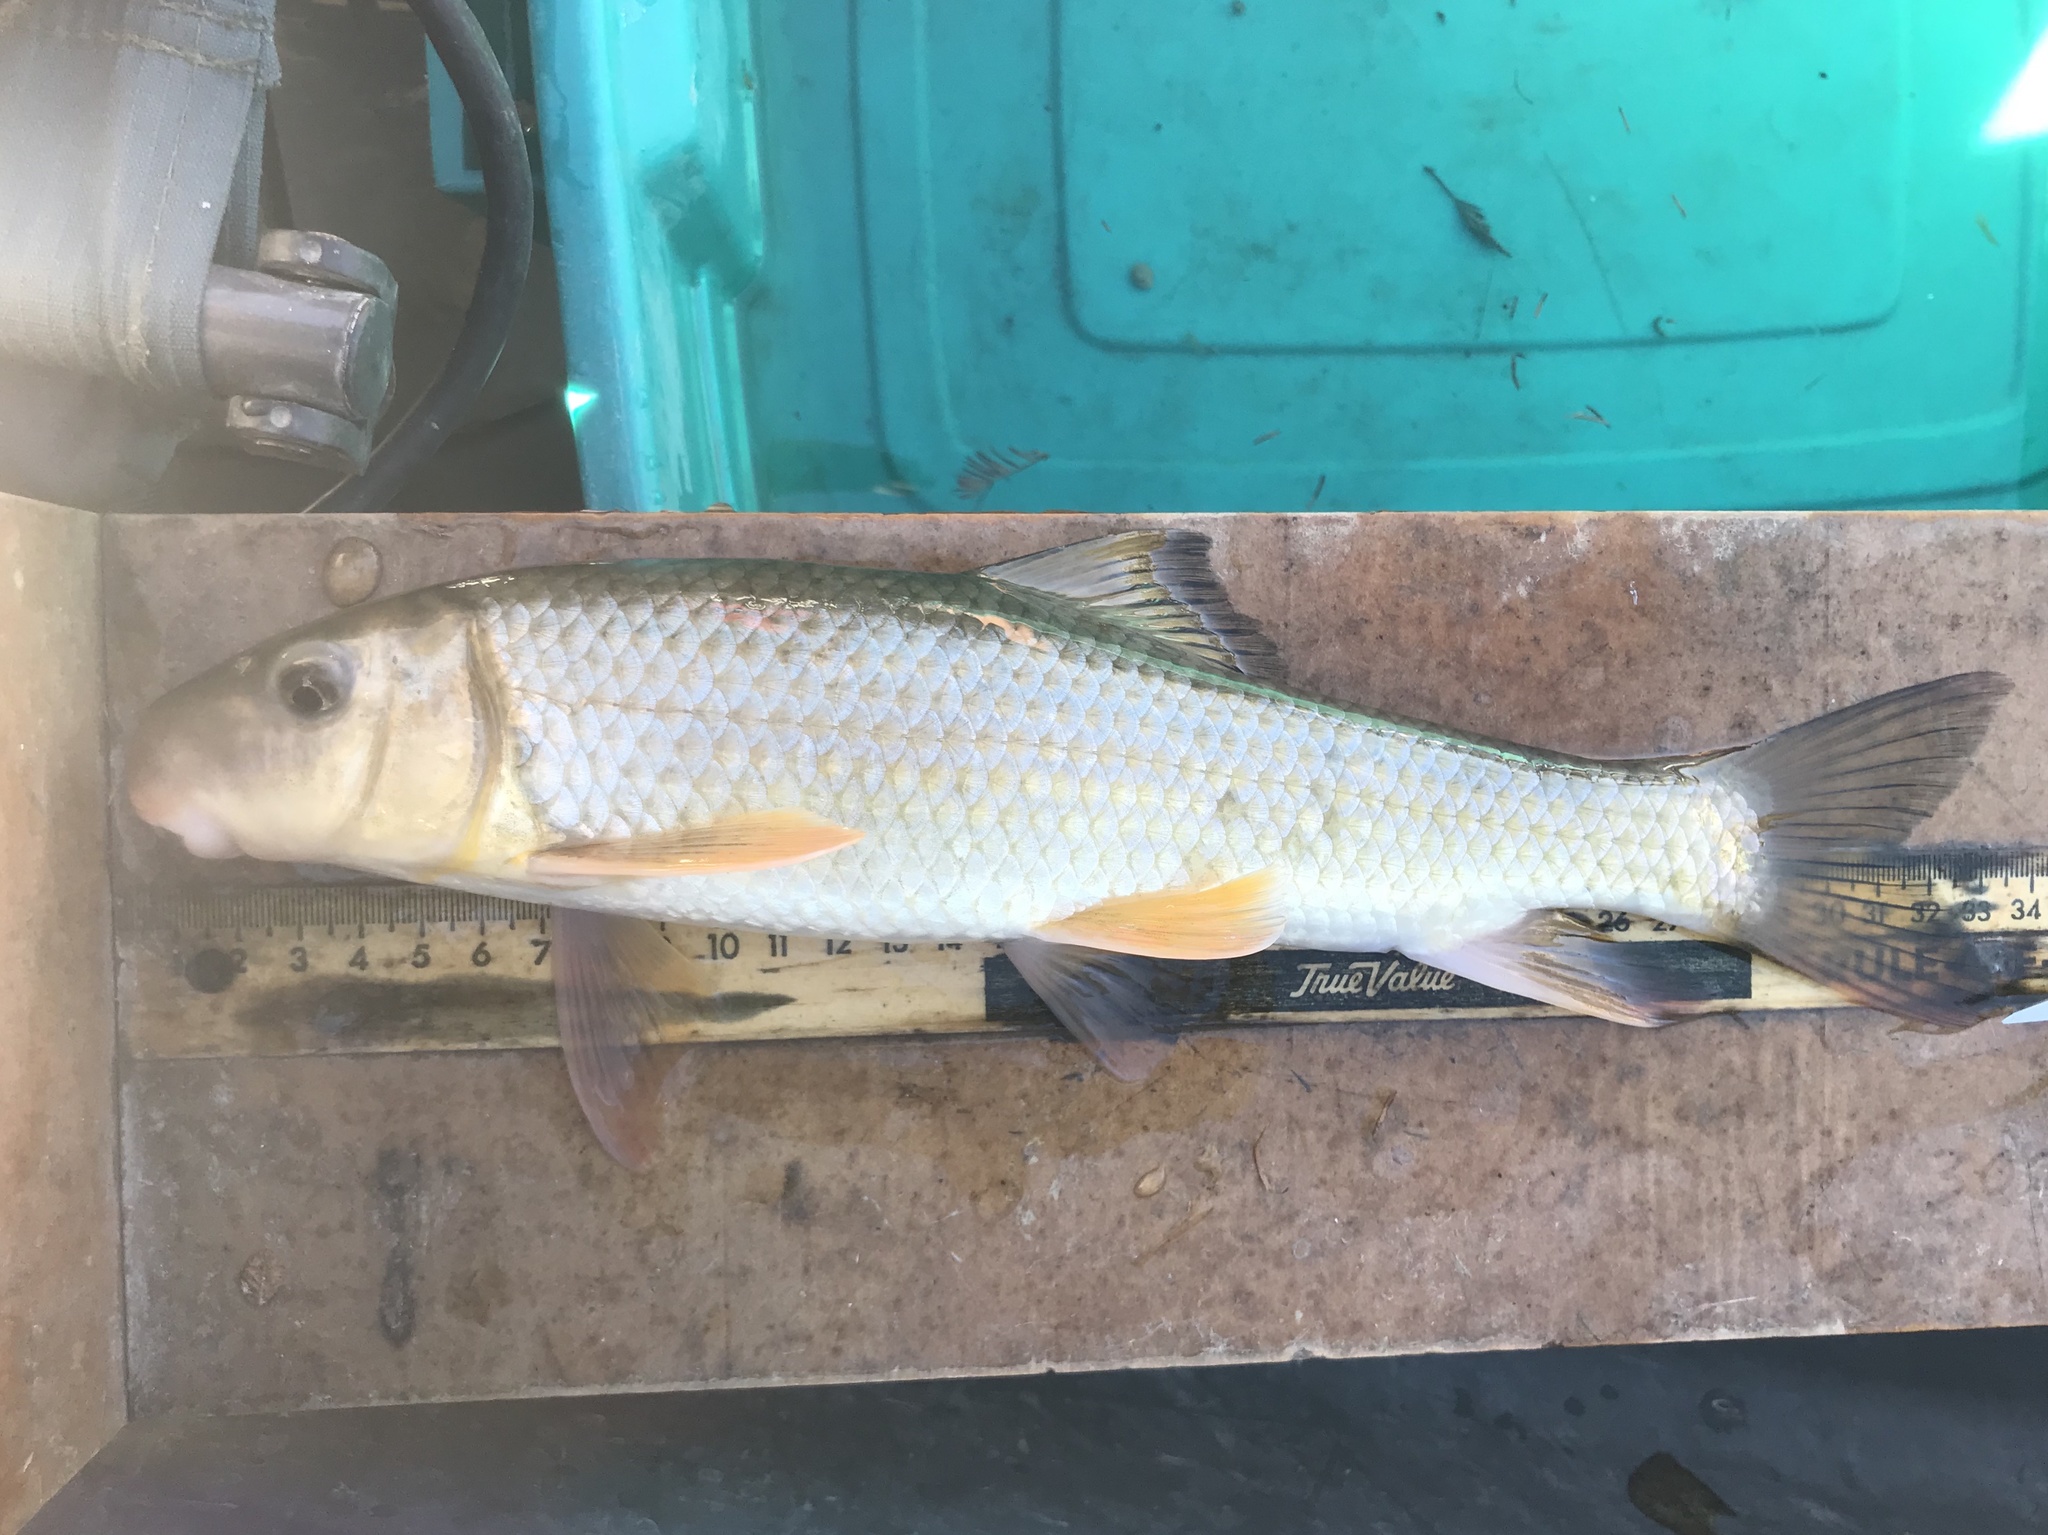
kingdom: Animalia
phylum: Chordata
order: Cypriniformes
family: Catostomidae
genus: Moxostoma
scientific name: Moxostoma congestum
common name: Gray redhorse
